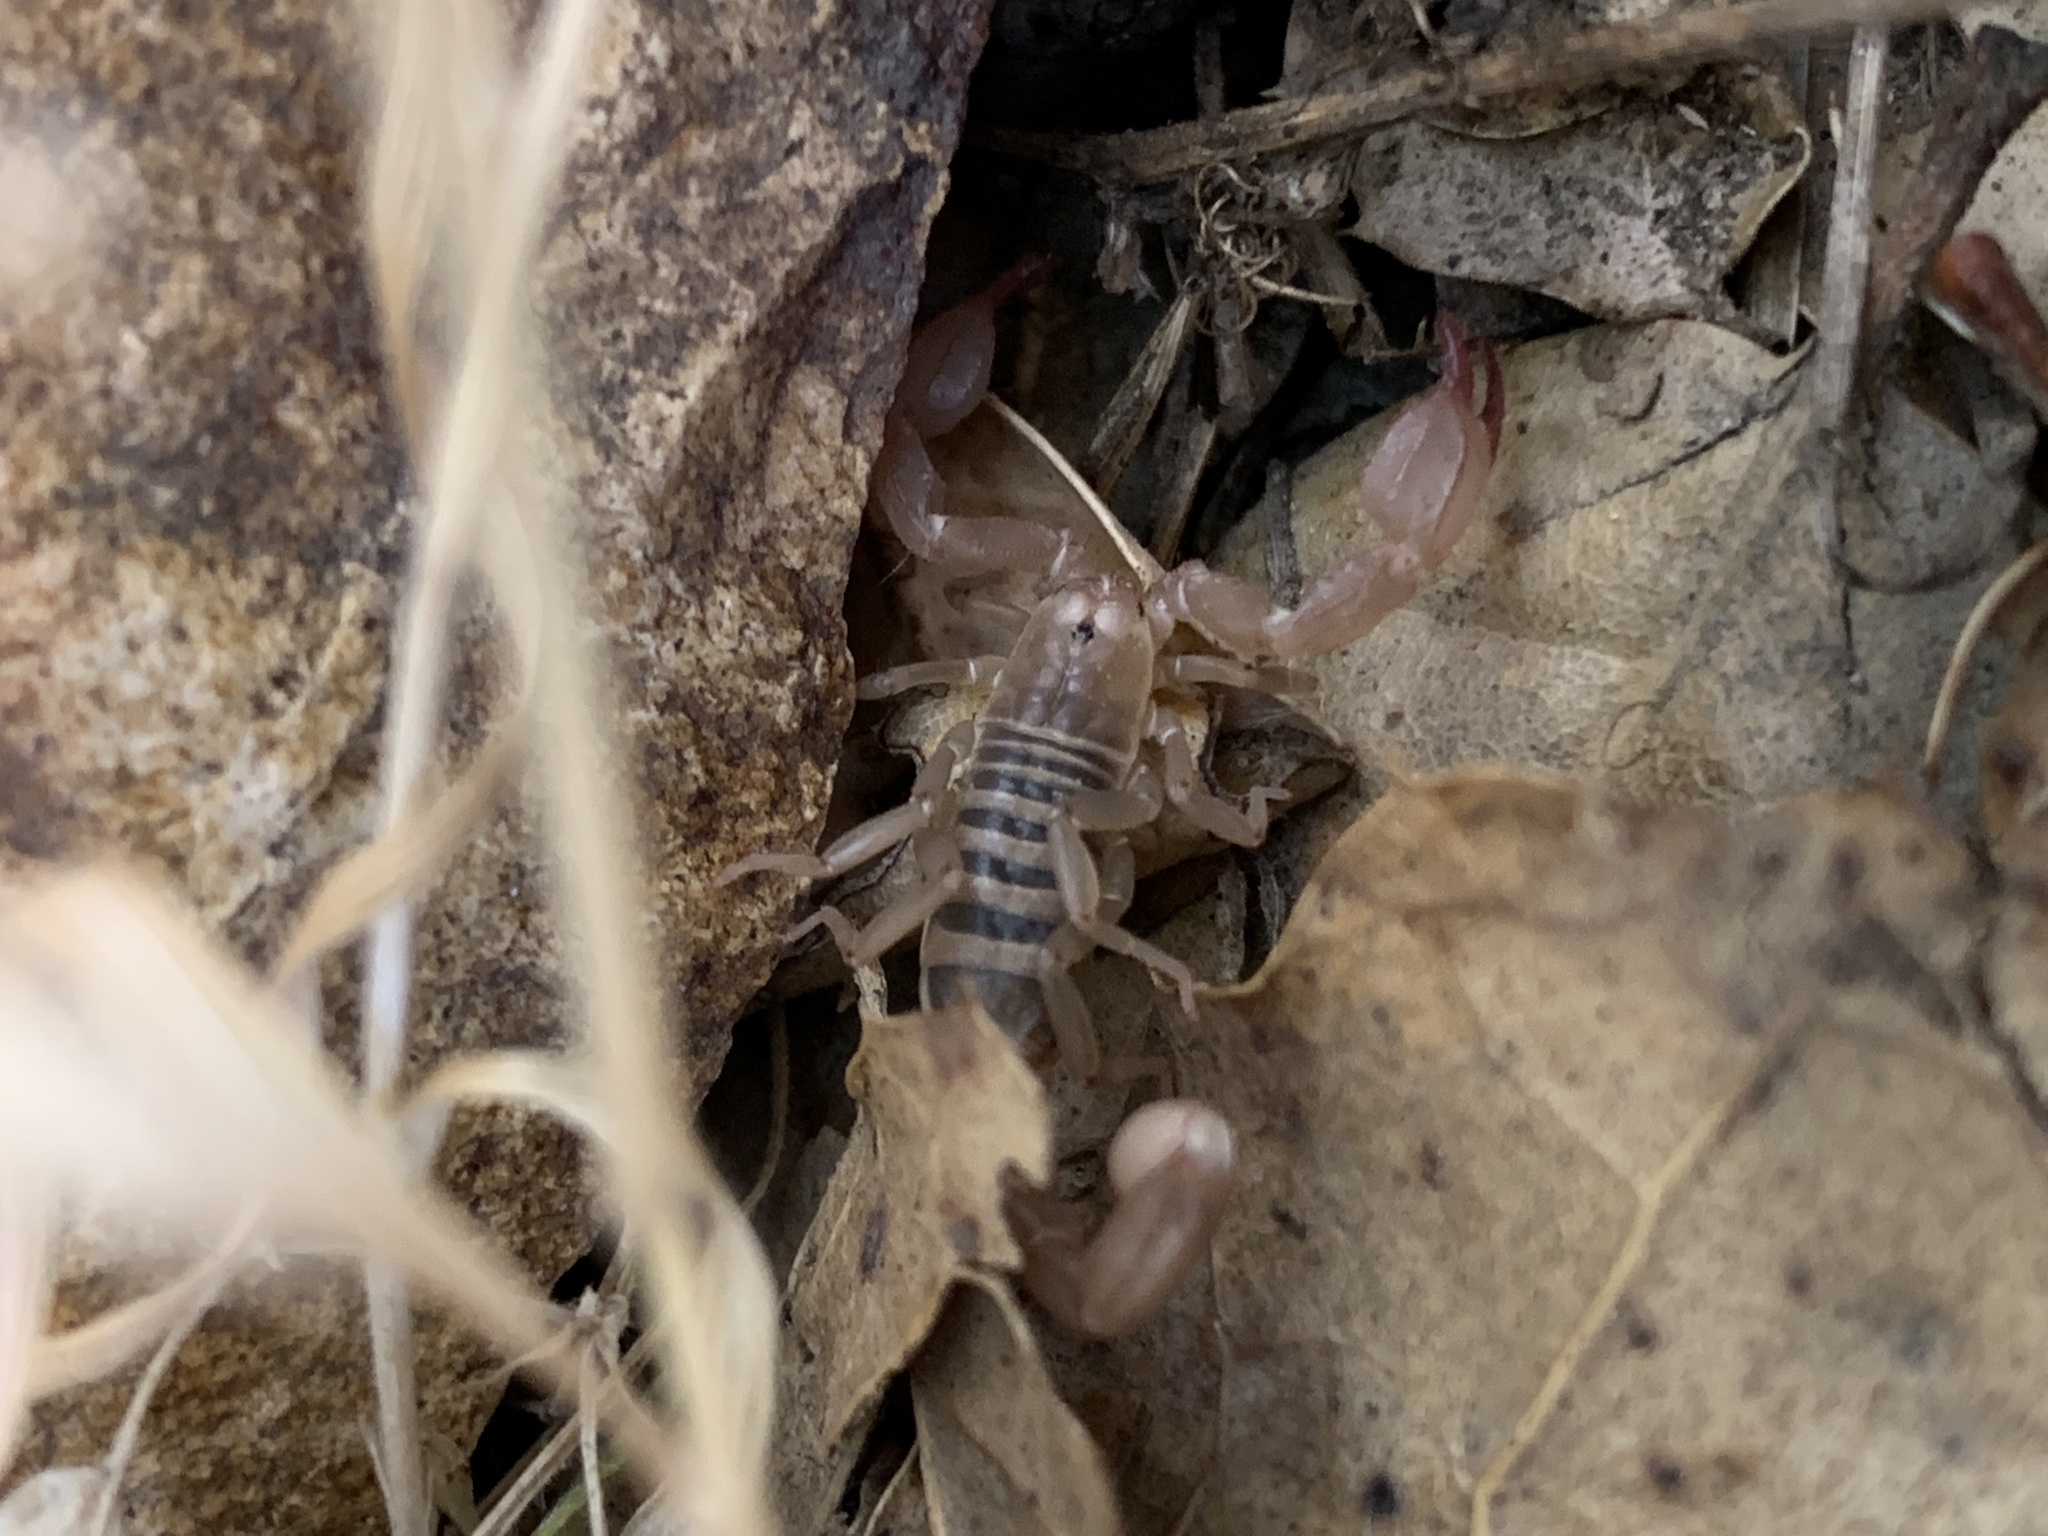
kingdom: Animalia
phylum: Arthropoda
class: Arachnida
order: Scorpiones
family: Vaejovidae
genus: Uroctonites
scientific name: Uroctonites montereus
